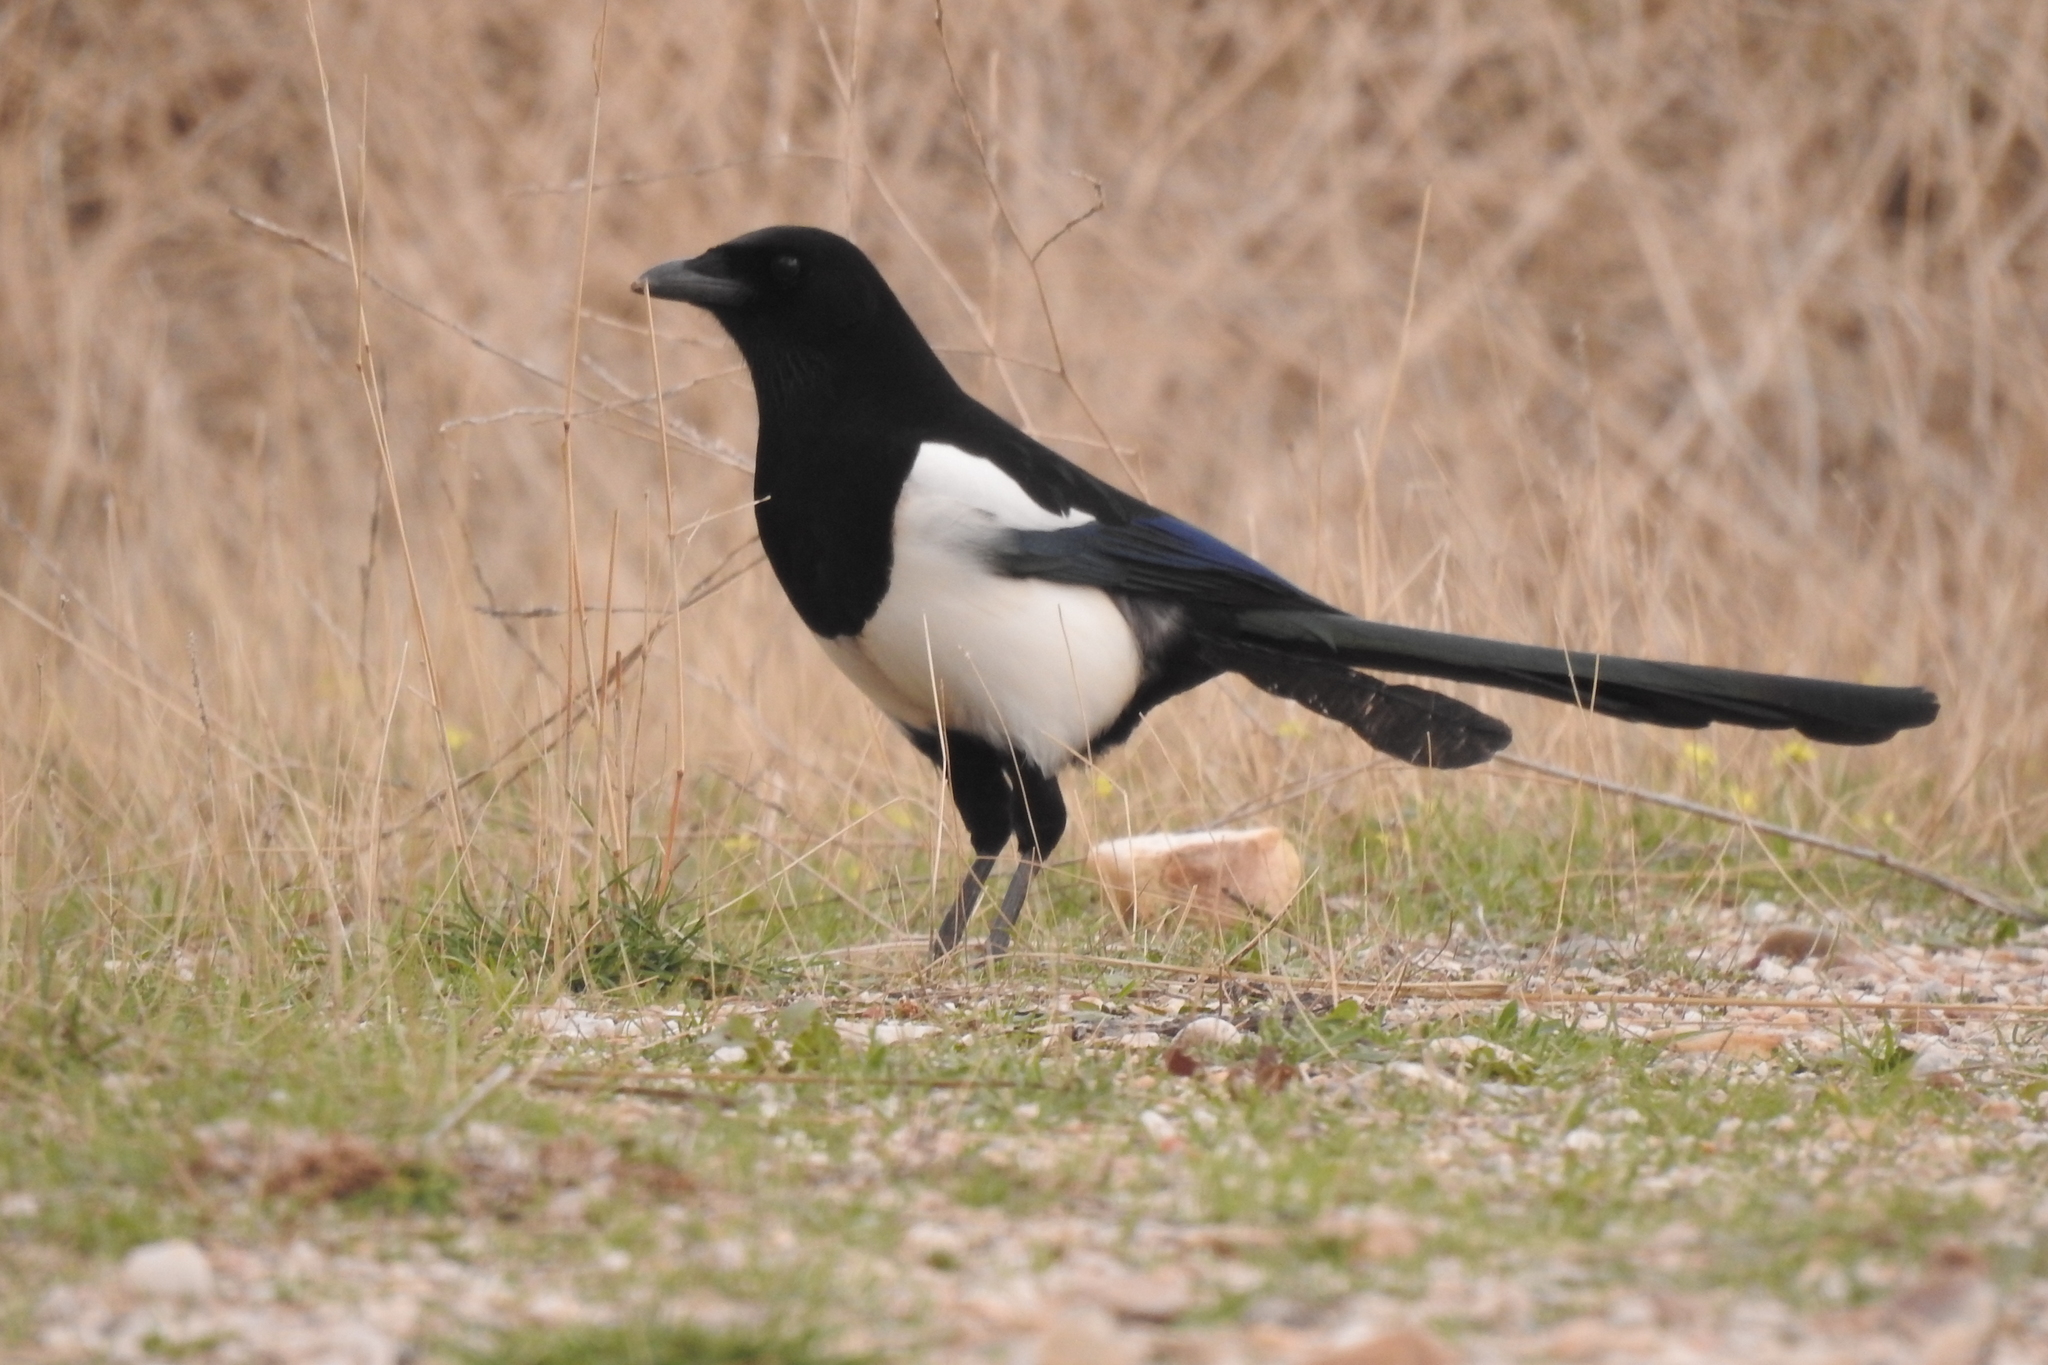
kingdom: Animalia
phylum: Chordata
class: Aves
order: Passeriformes
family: Corvidae
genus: Pica
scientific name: Pica pica
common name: Eurasian magpie
